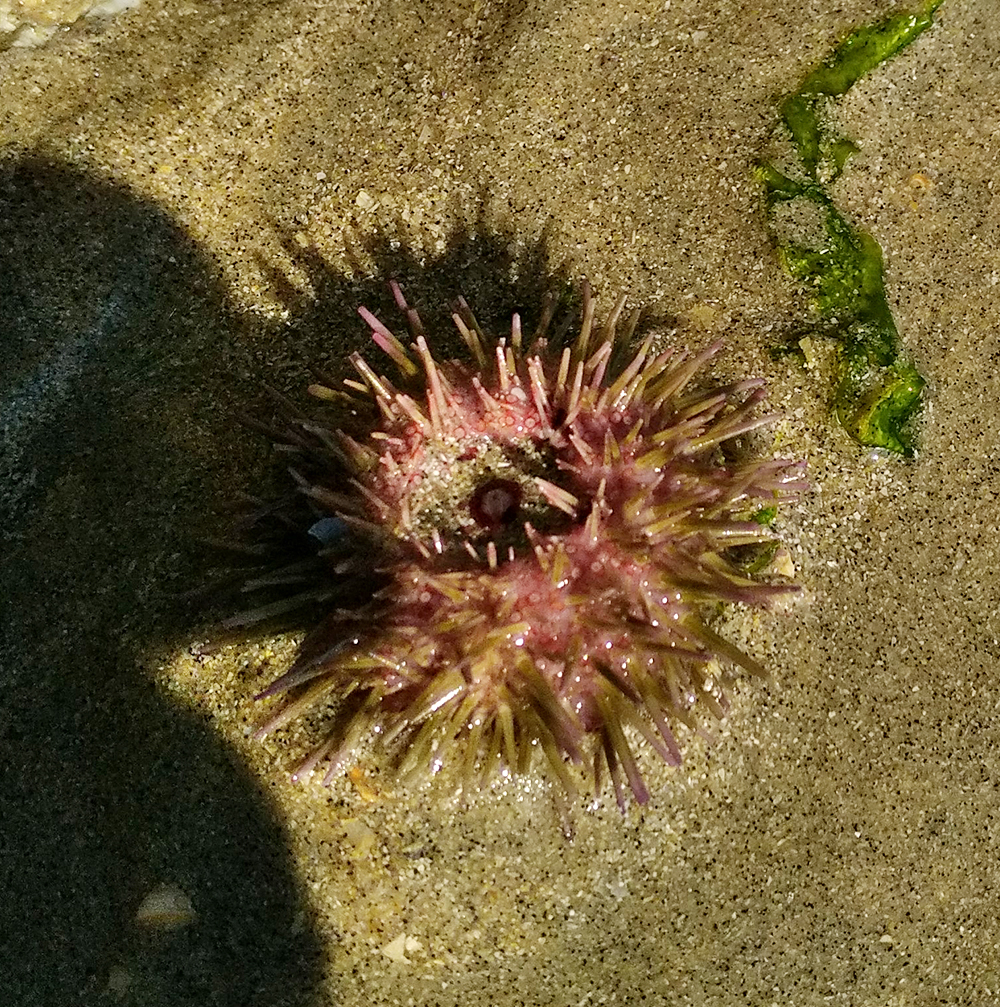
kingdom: Animalia
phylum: Echinodermata
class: Echinoidea
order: Camarodonta
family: Parechinidae
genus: Psammechinus
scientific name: Psammechinus miliaris
